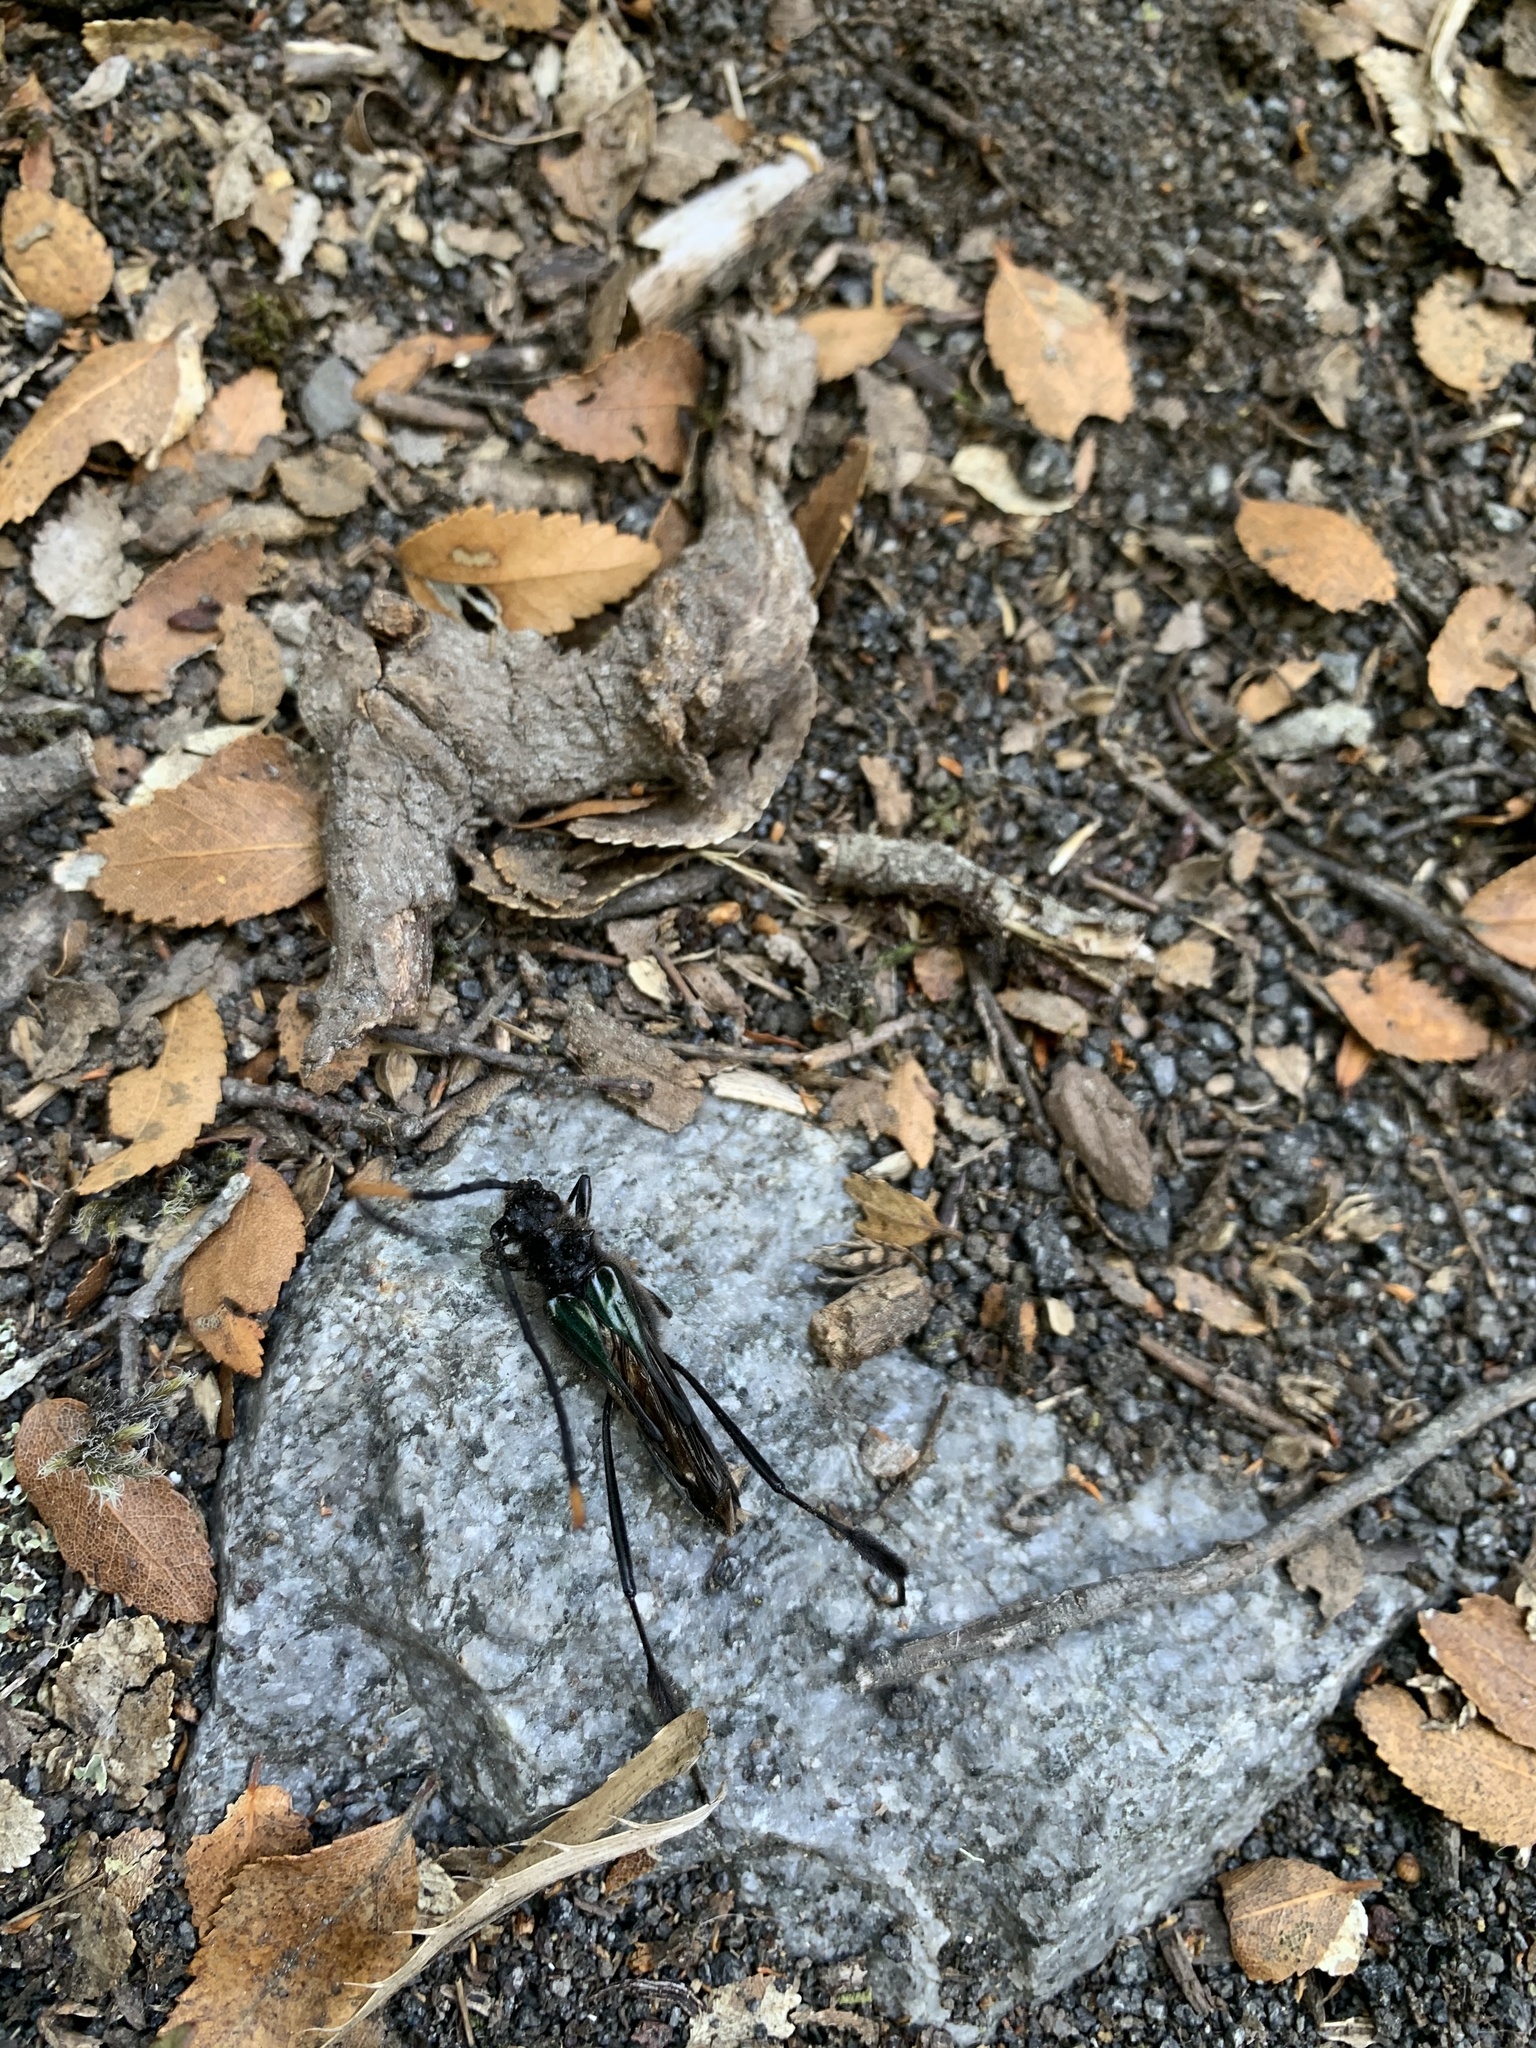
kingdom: Animalia
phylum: Arthropoda
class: Insecta
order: Coleoptera
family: Cerambycidae
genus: Planopus
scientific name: Planopus laniniensis
